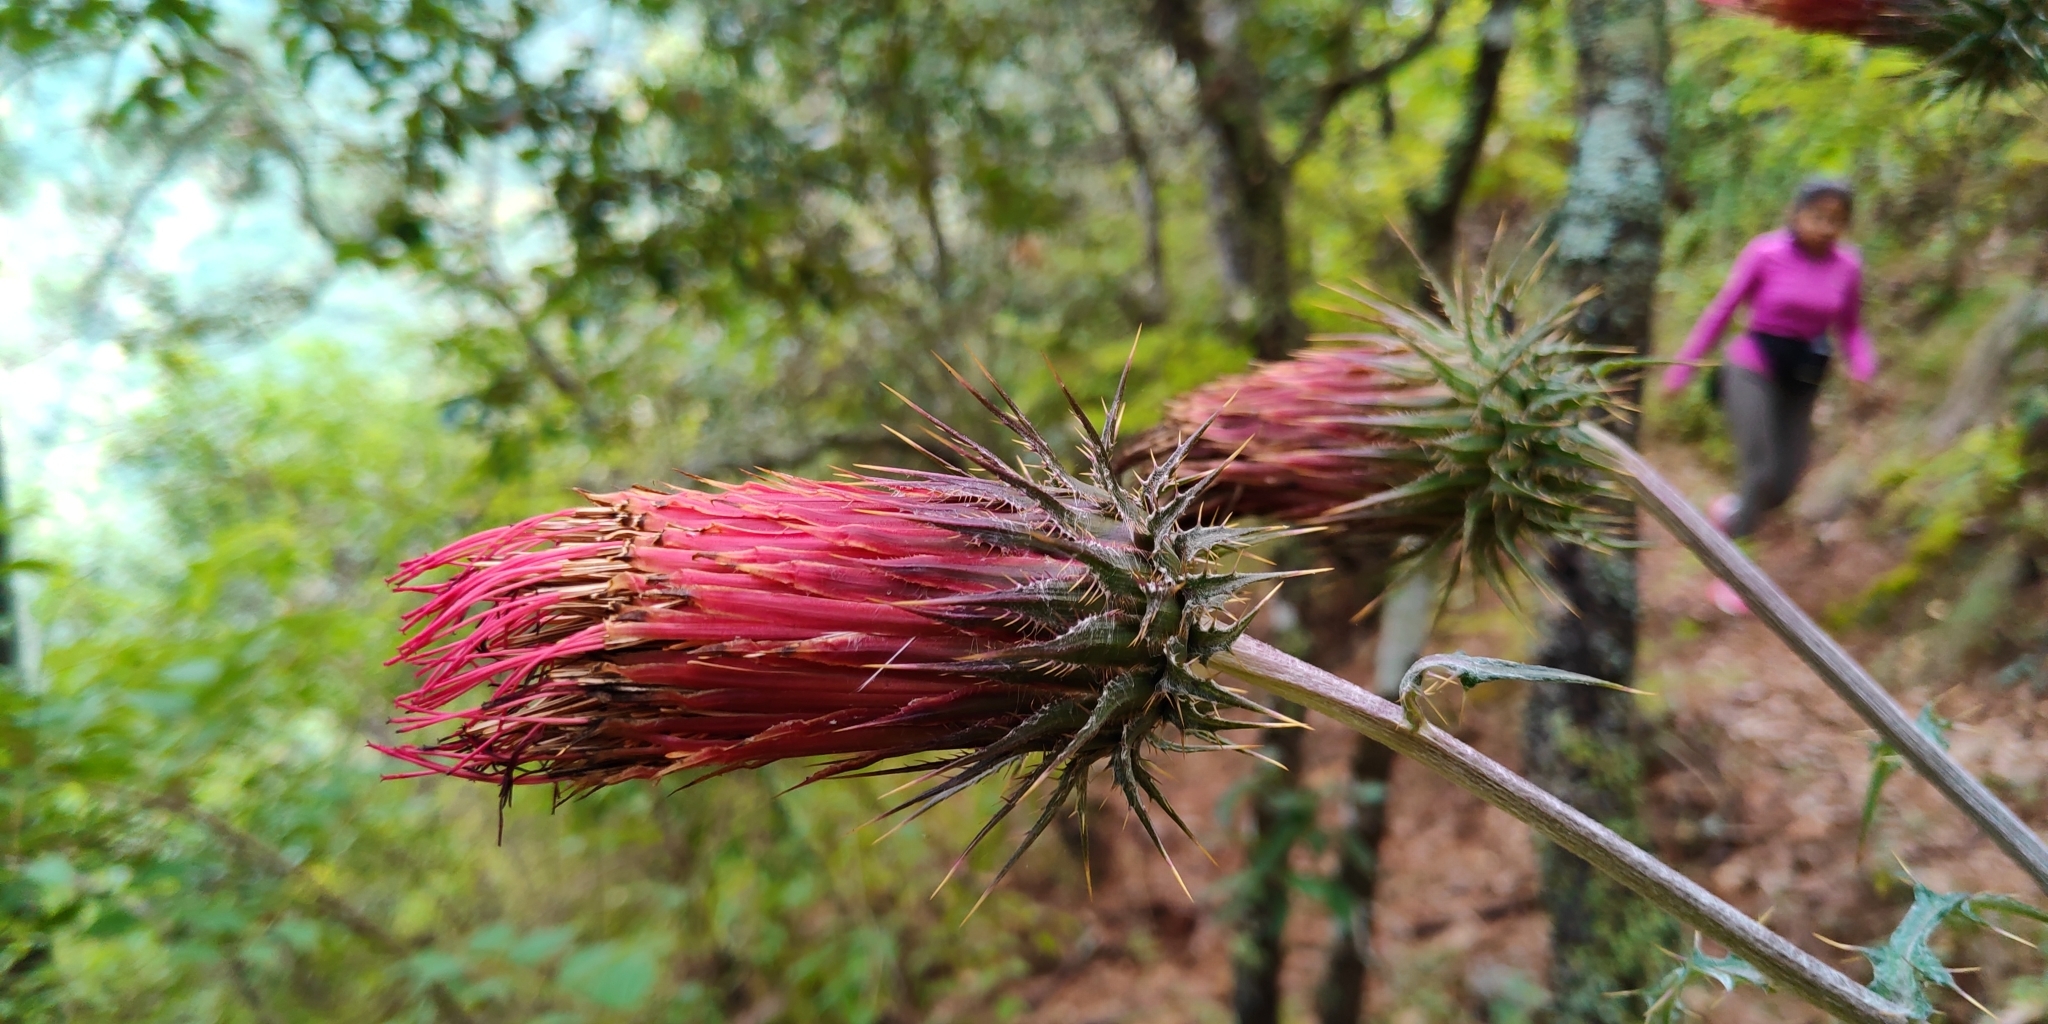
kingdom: Plantae
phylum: Tracheophyta
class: Magnoliopsida
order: Asterales
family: Asteraceae
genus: Cirsium
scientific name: Cirsium ehrenbergii
